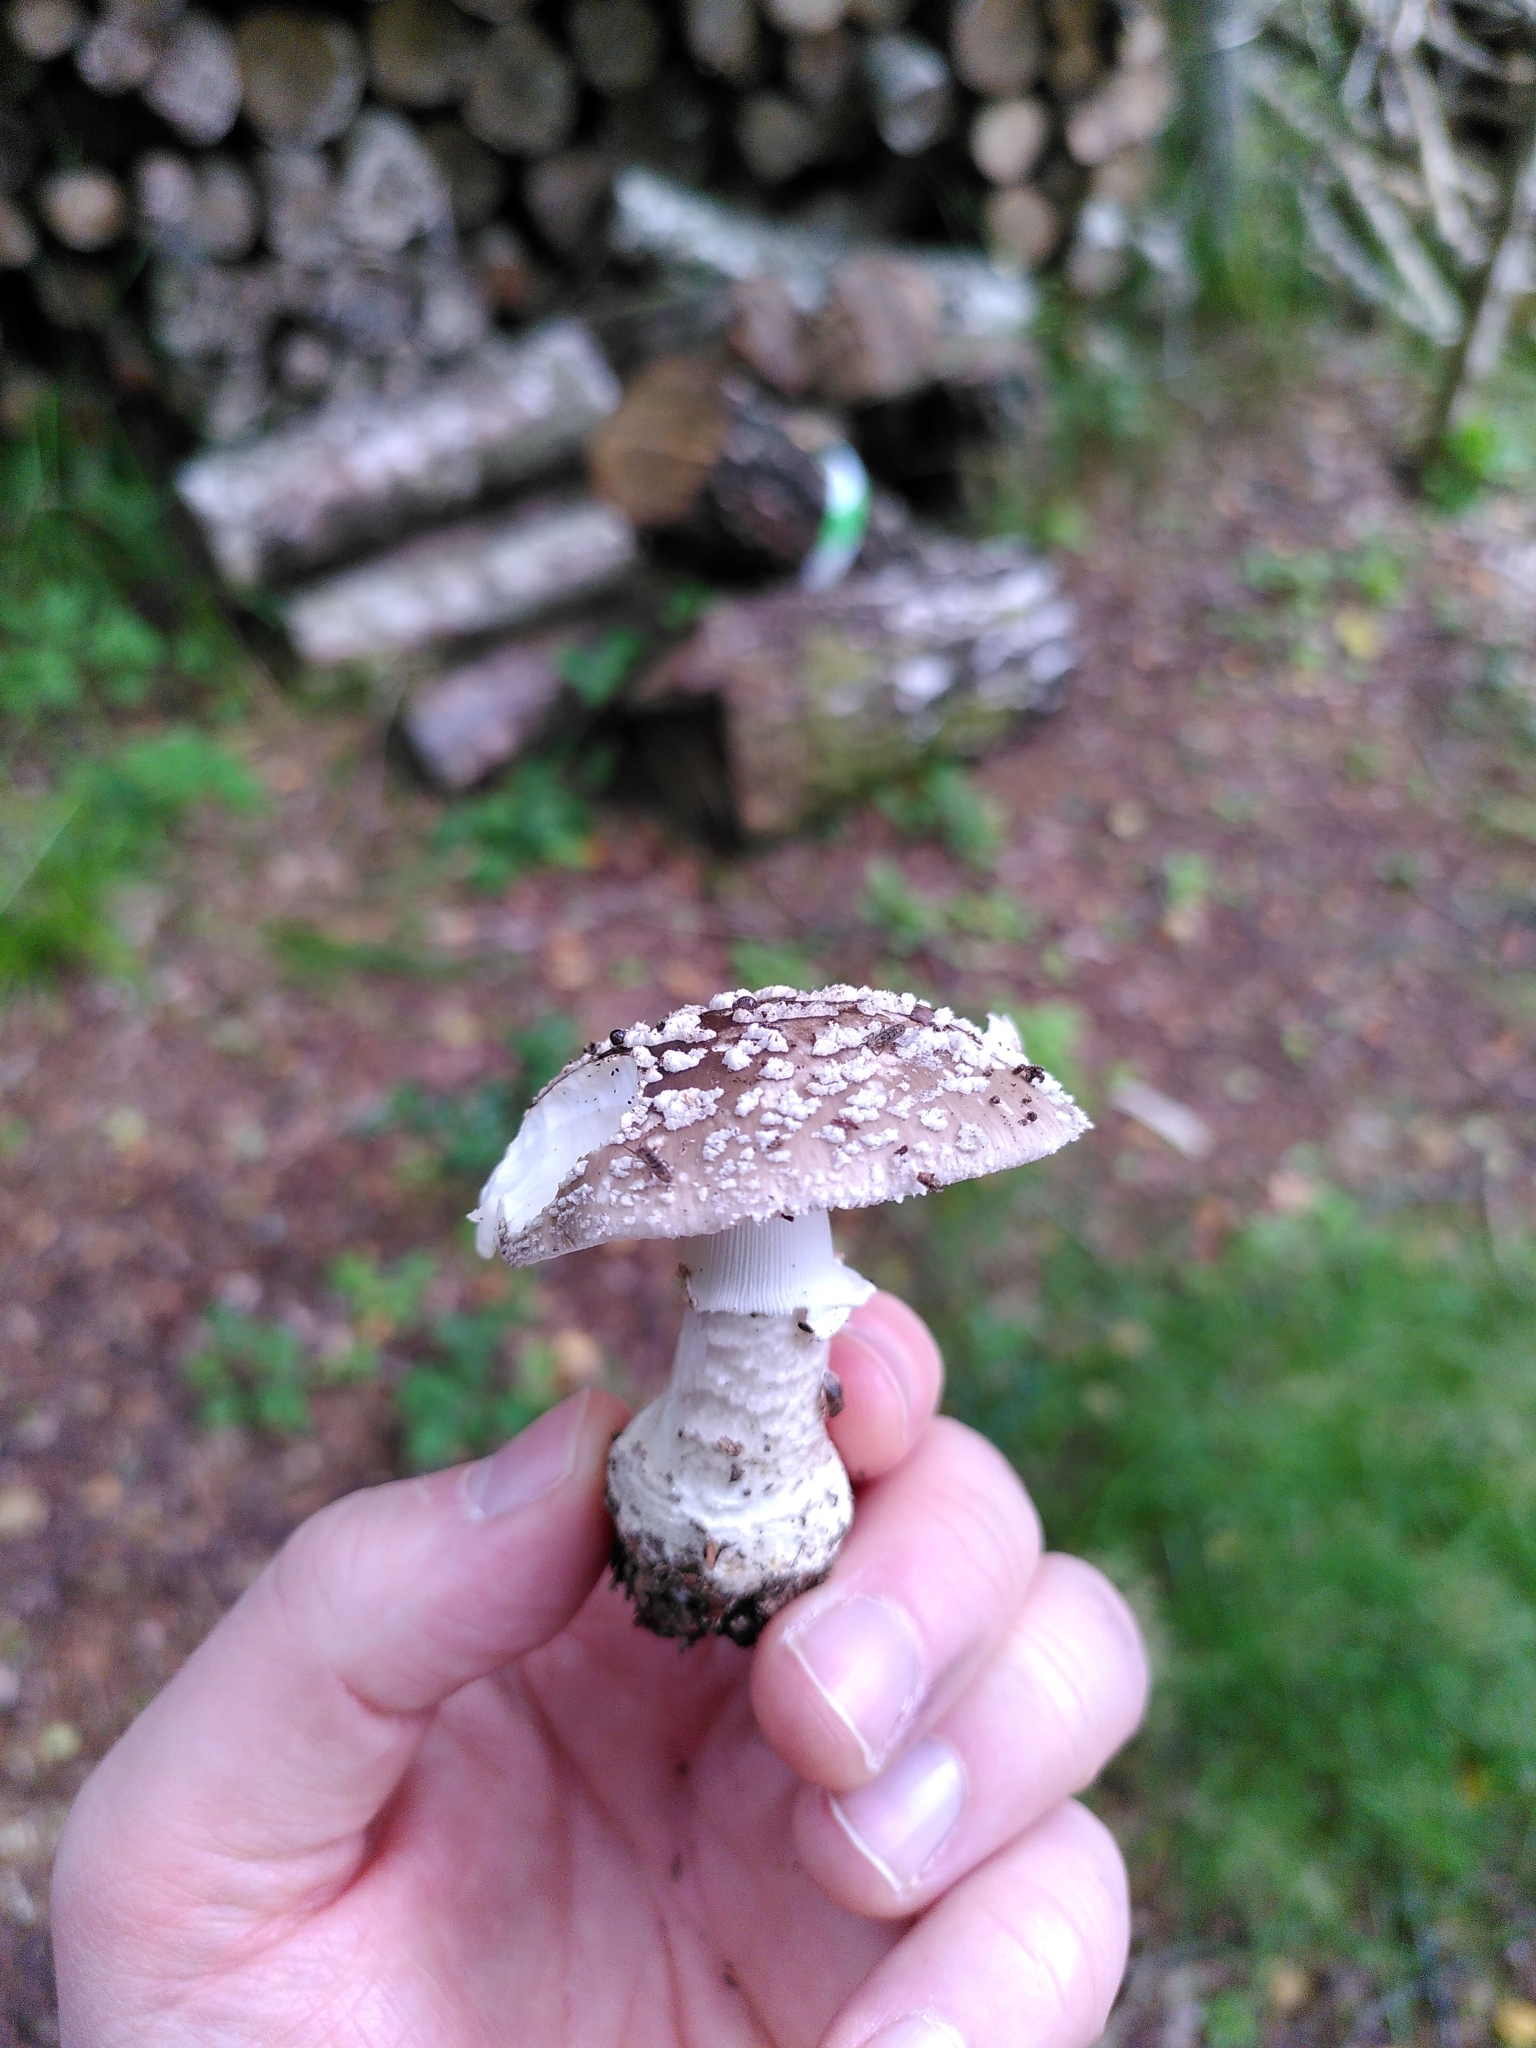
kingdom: Fungi
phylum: Basidiomycota
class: Agaricomycetes
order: Agaricales
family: Amanitaceae
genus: Amanita
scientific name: Amanita excelsa
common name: European false blusher
